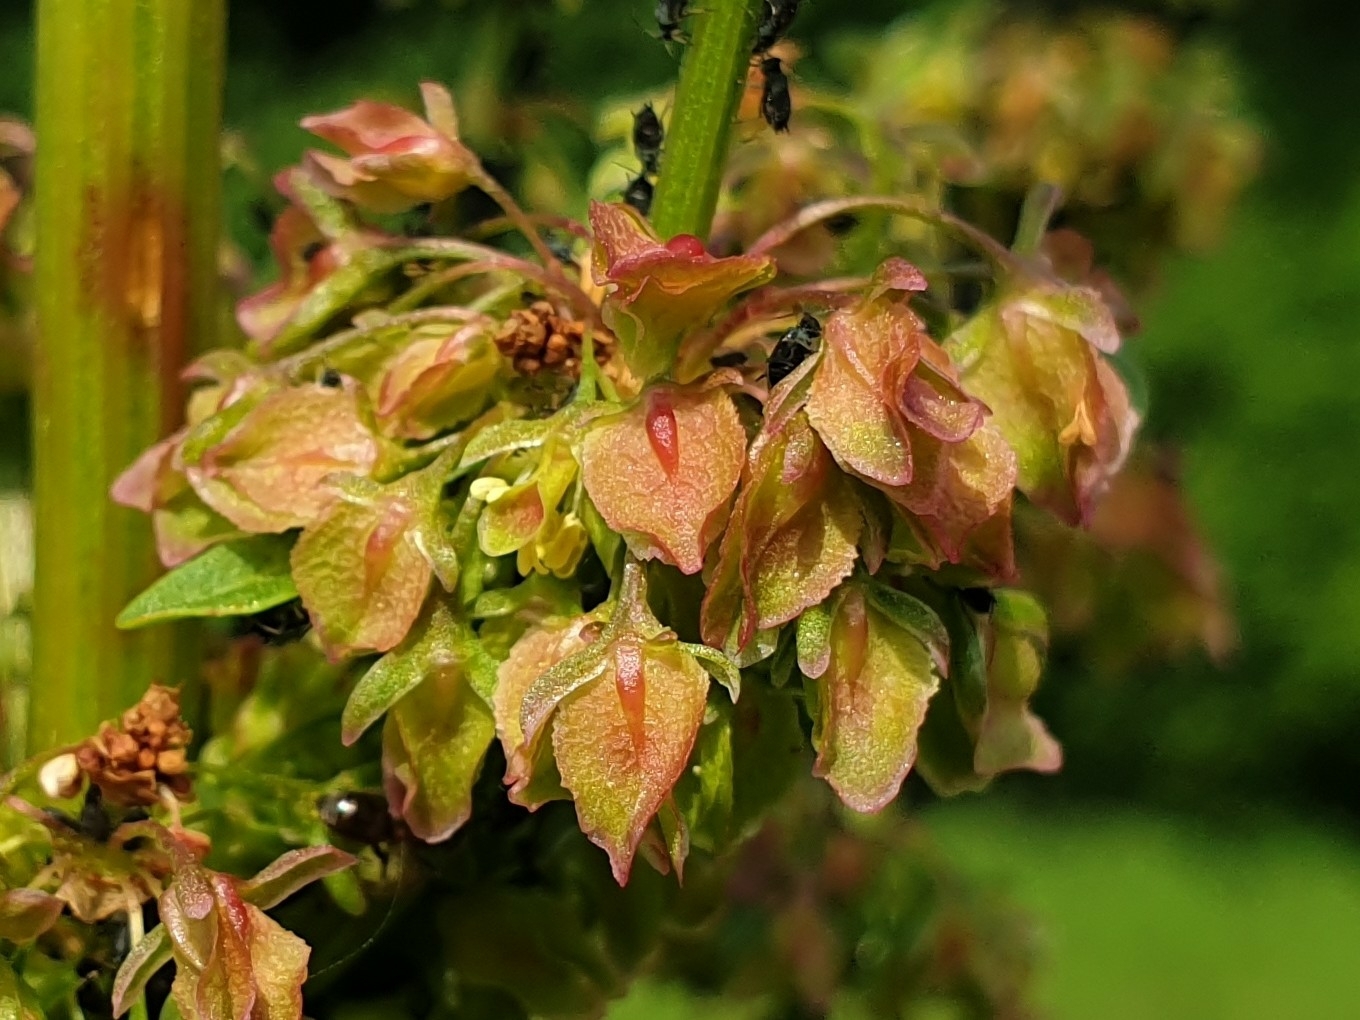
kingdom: Plantae
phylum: Tracheophyta
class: Magnoliopsida
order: Caryophyllales
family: Polygonaceae
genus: Rumex
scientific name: Rumex crispus
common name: Curled dock
